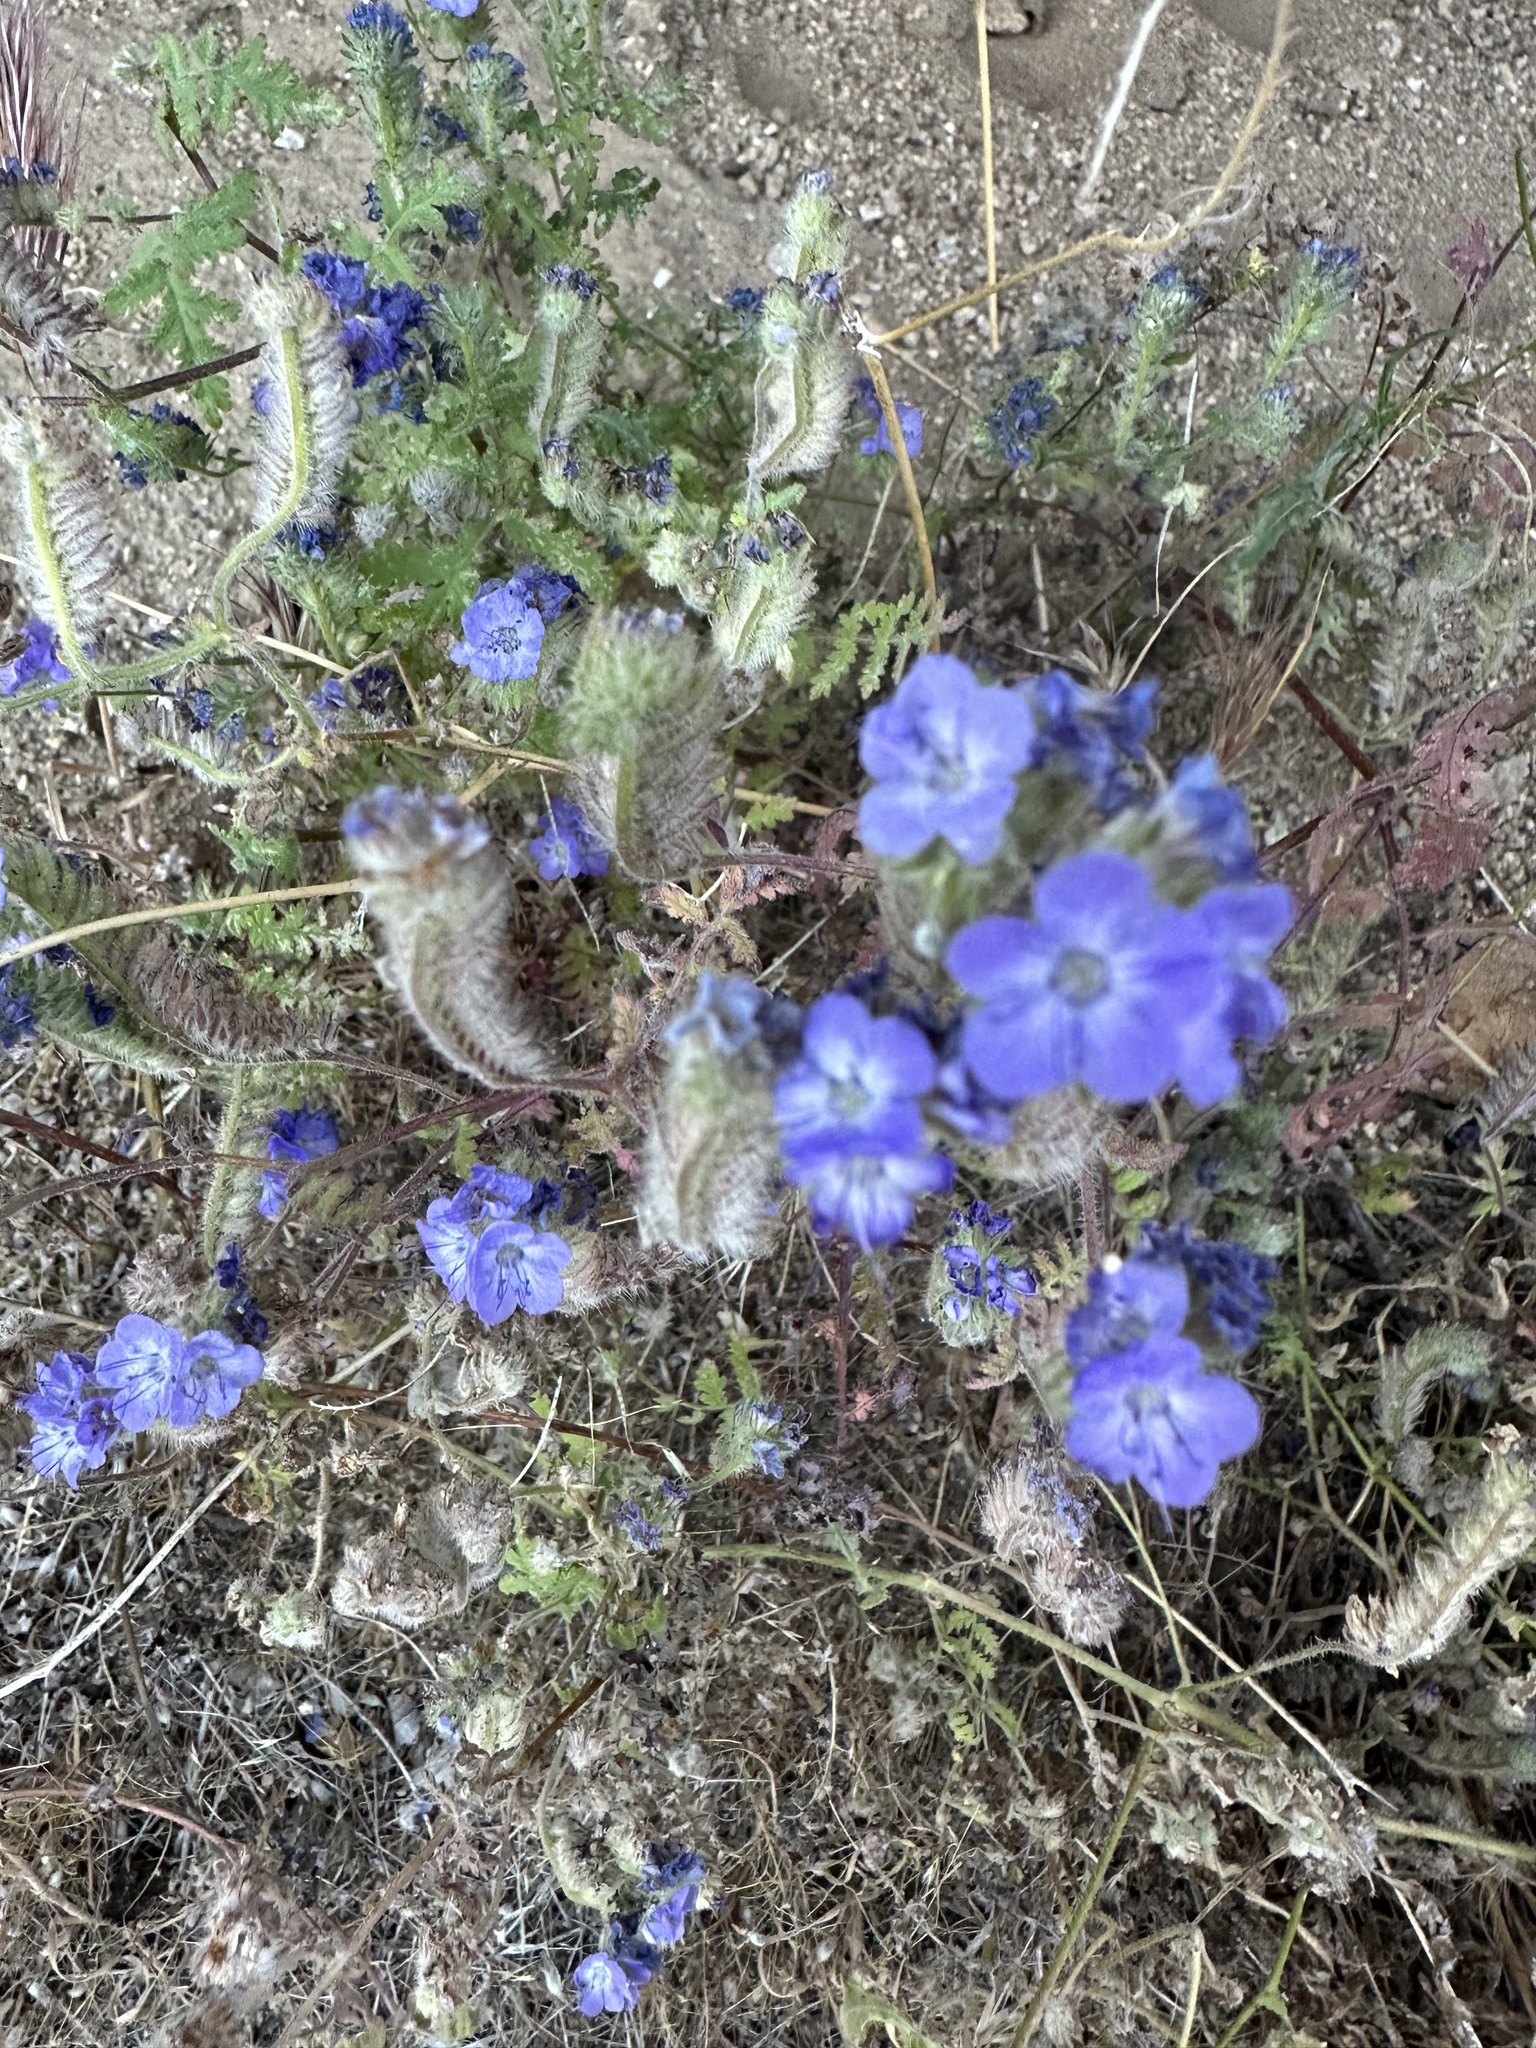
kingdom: Plantae
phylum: Tracheophyta
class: Magnoliopsida
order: Boraginales
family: Hydrophyllaceae
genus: Phacelia
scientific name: Phacelia distans
